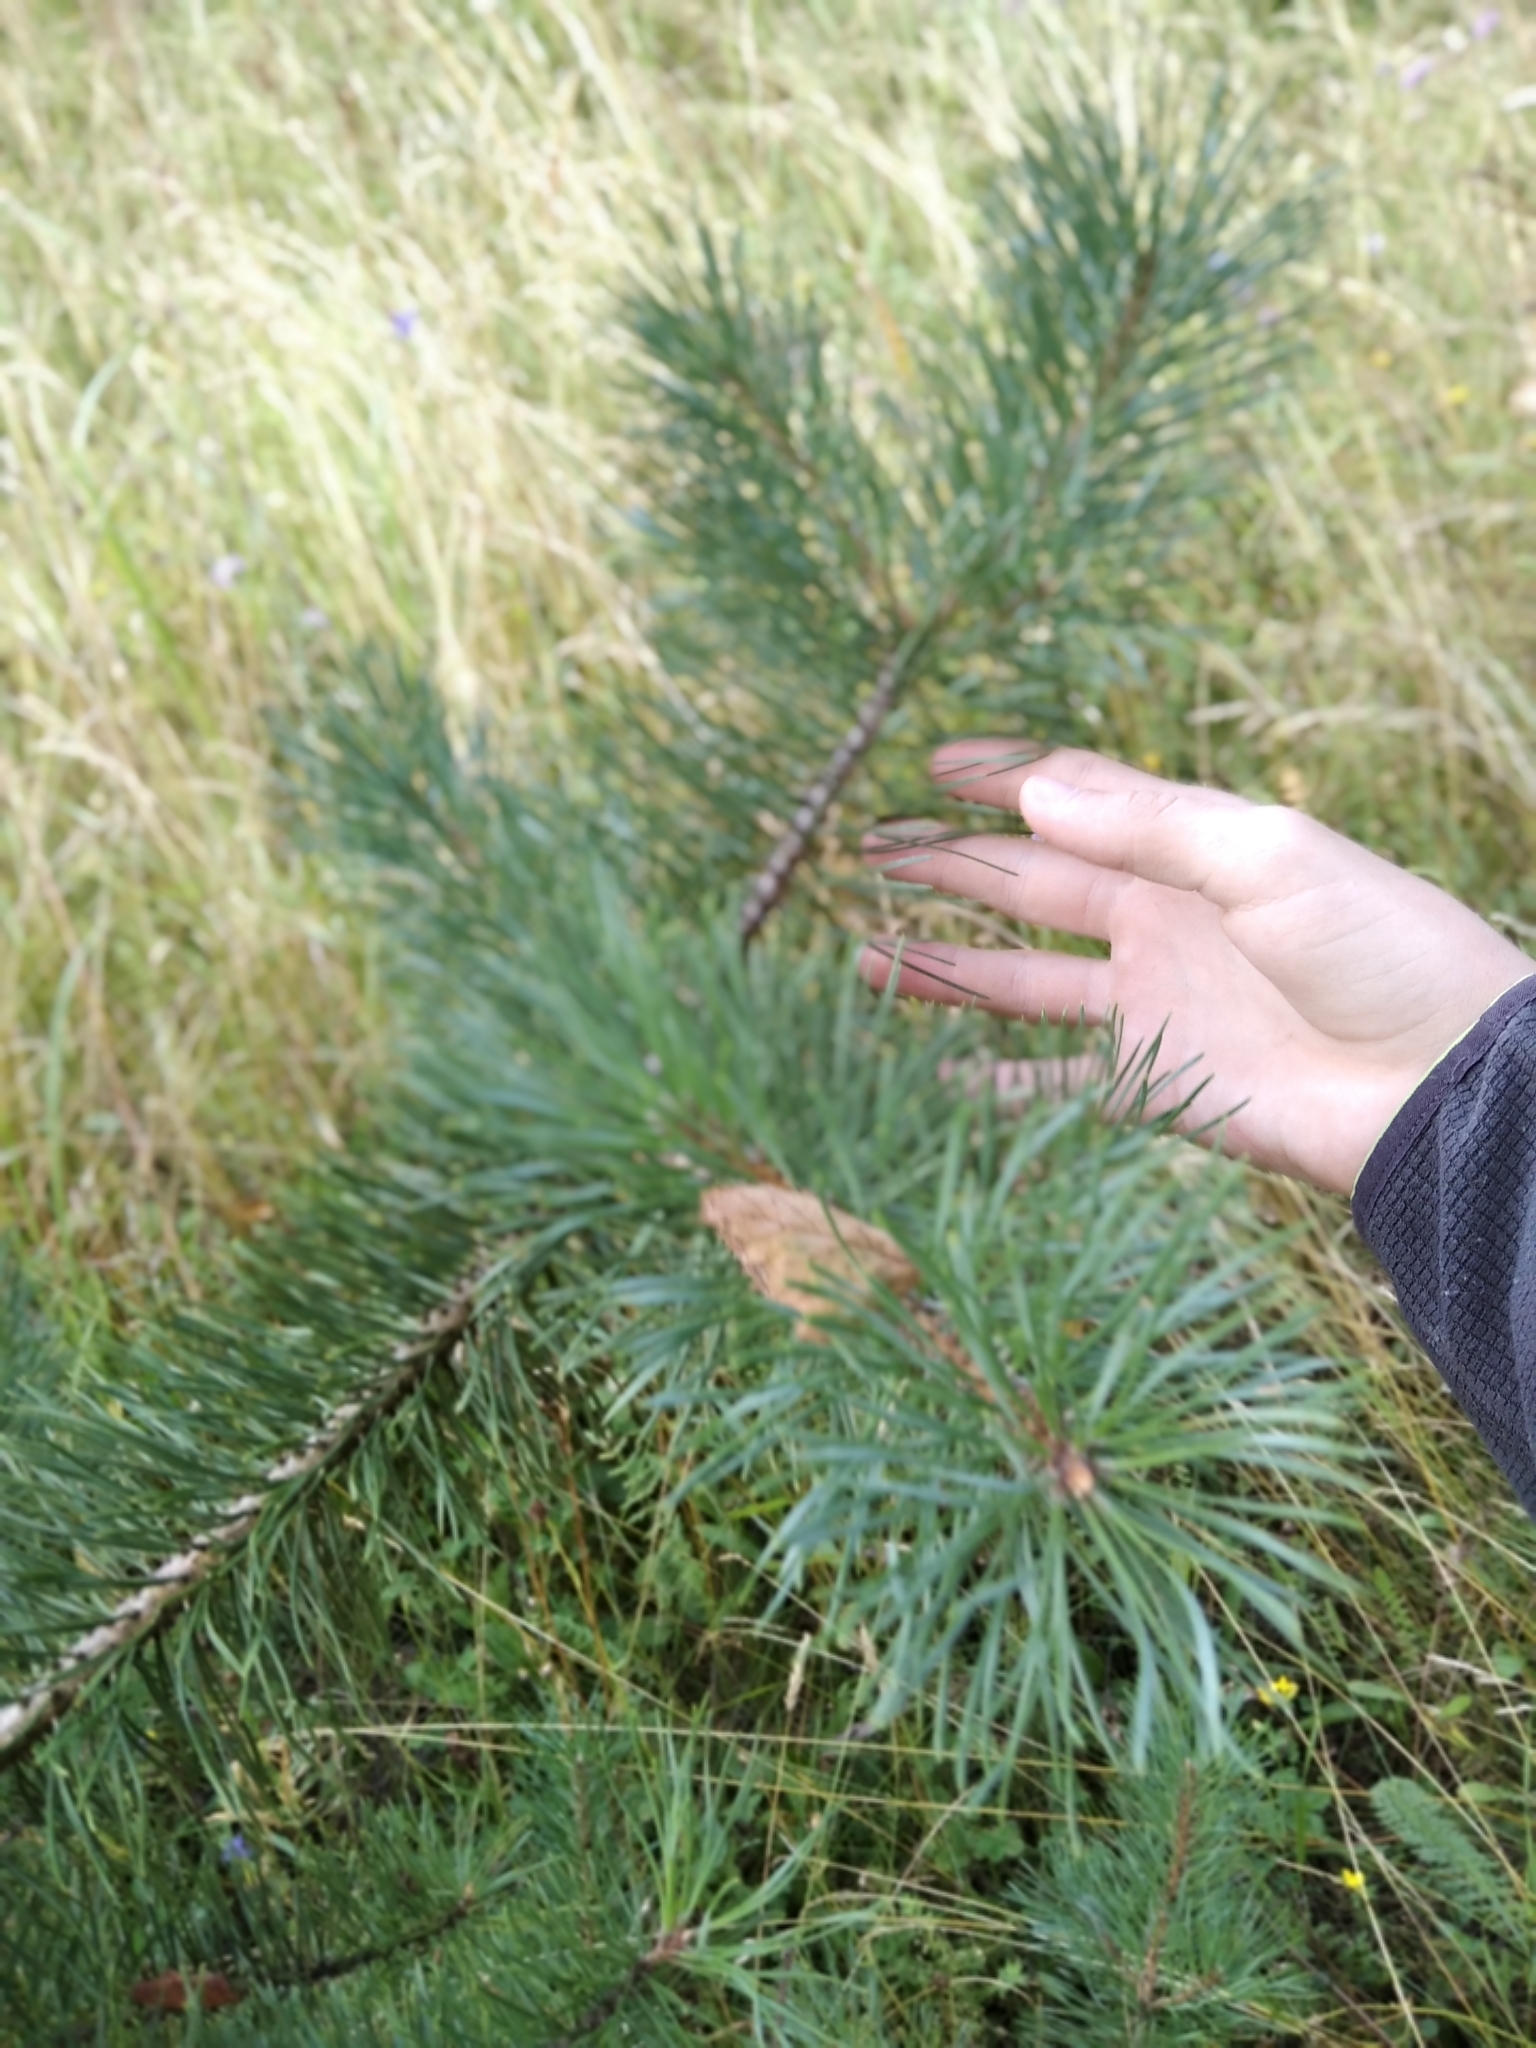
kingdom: Plantae
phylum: Tracheophyta
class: Pinopsida
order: Pinales
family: Pinaceae
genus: Pinus
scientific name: Pinus sylvestris
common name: Scots pine
